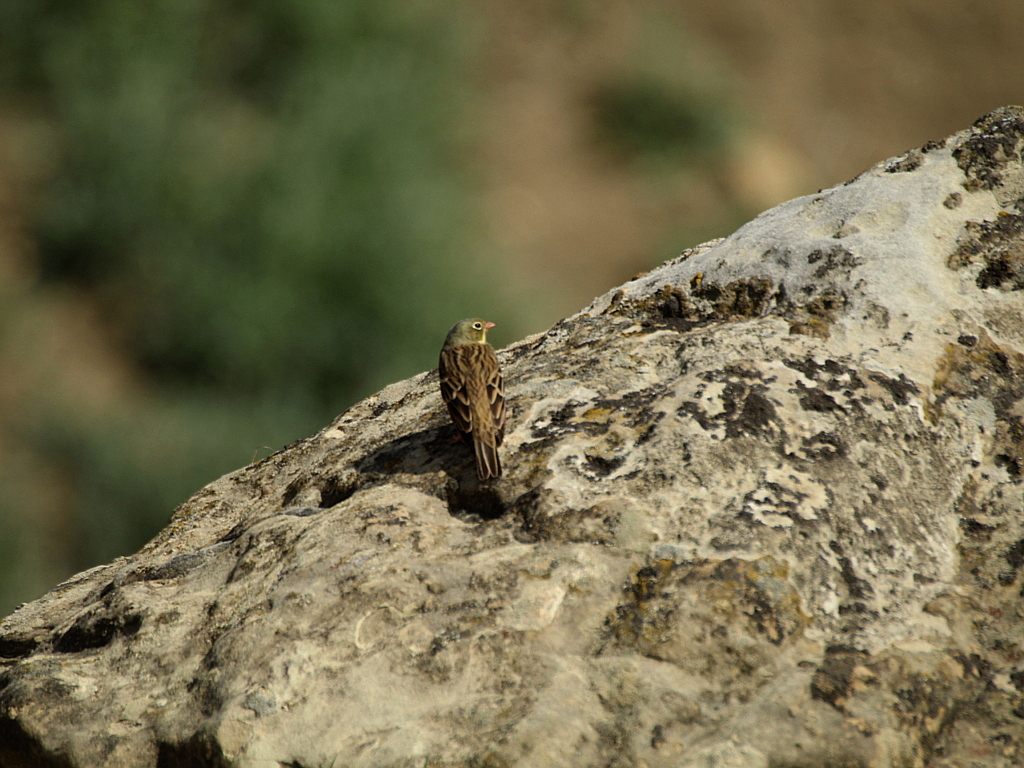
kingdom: Animalia
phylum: Chordata
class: Aves
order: Passeriformes
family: Emberizidae
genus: Emberiza
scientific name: Emberiza hortulana
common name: Ortolan bunting
